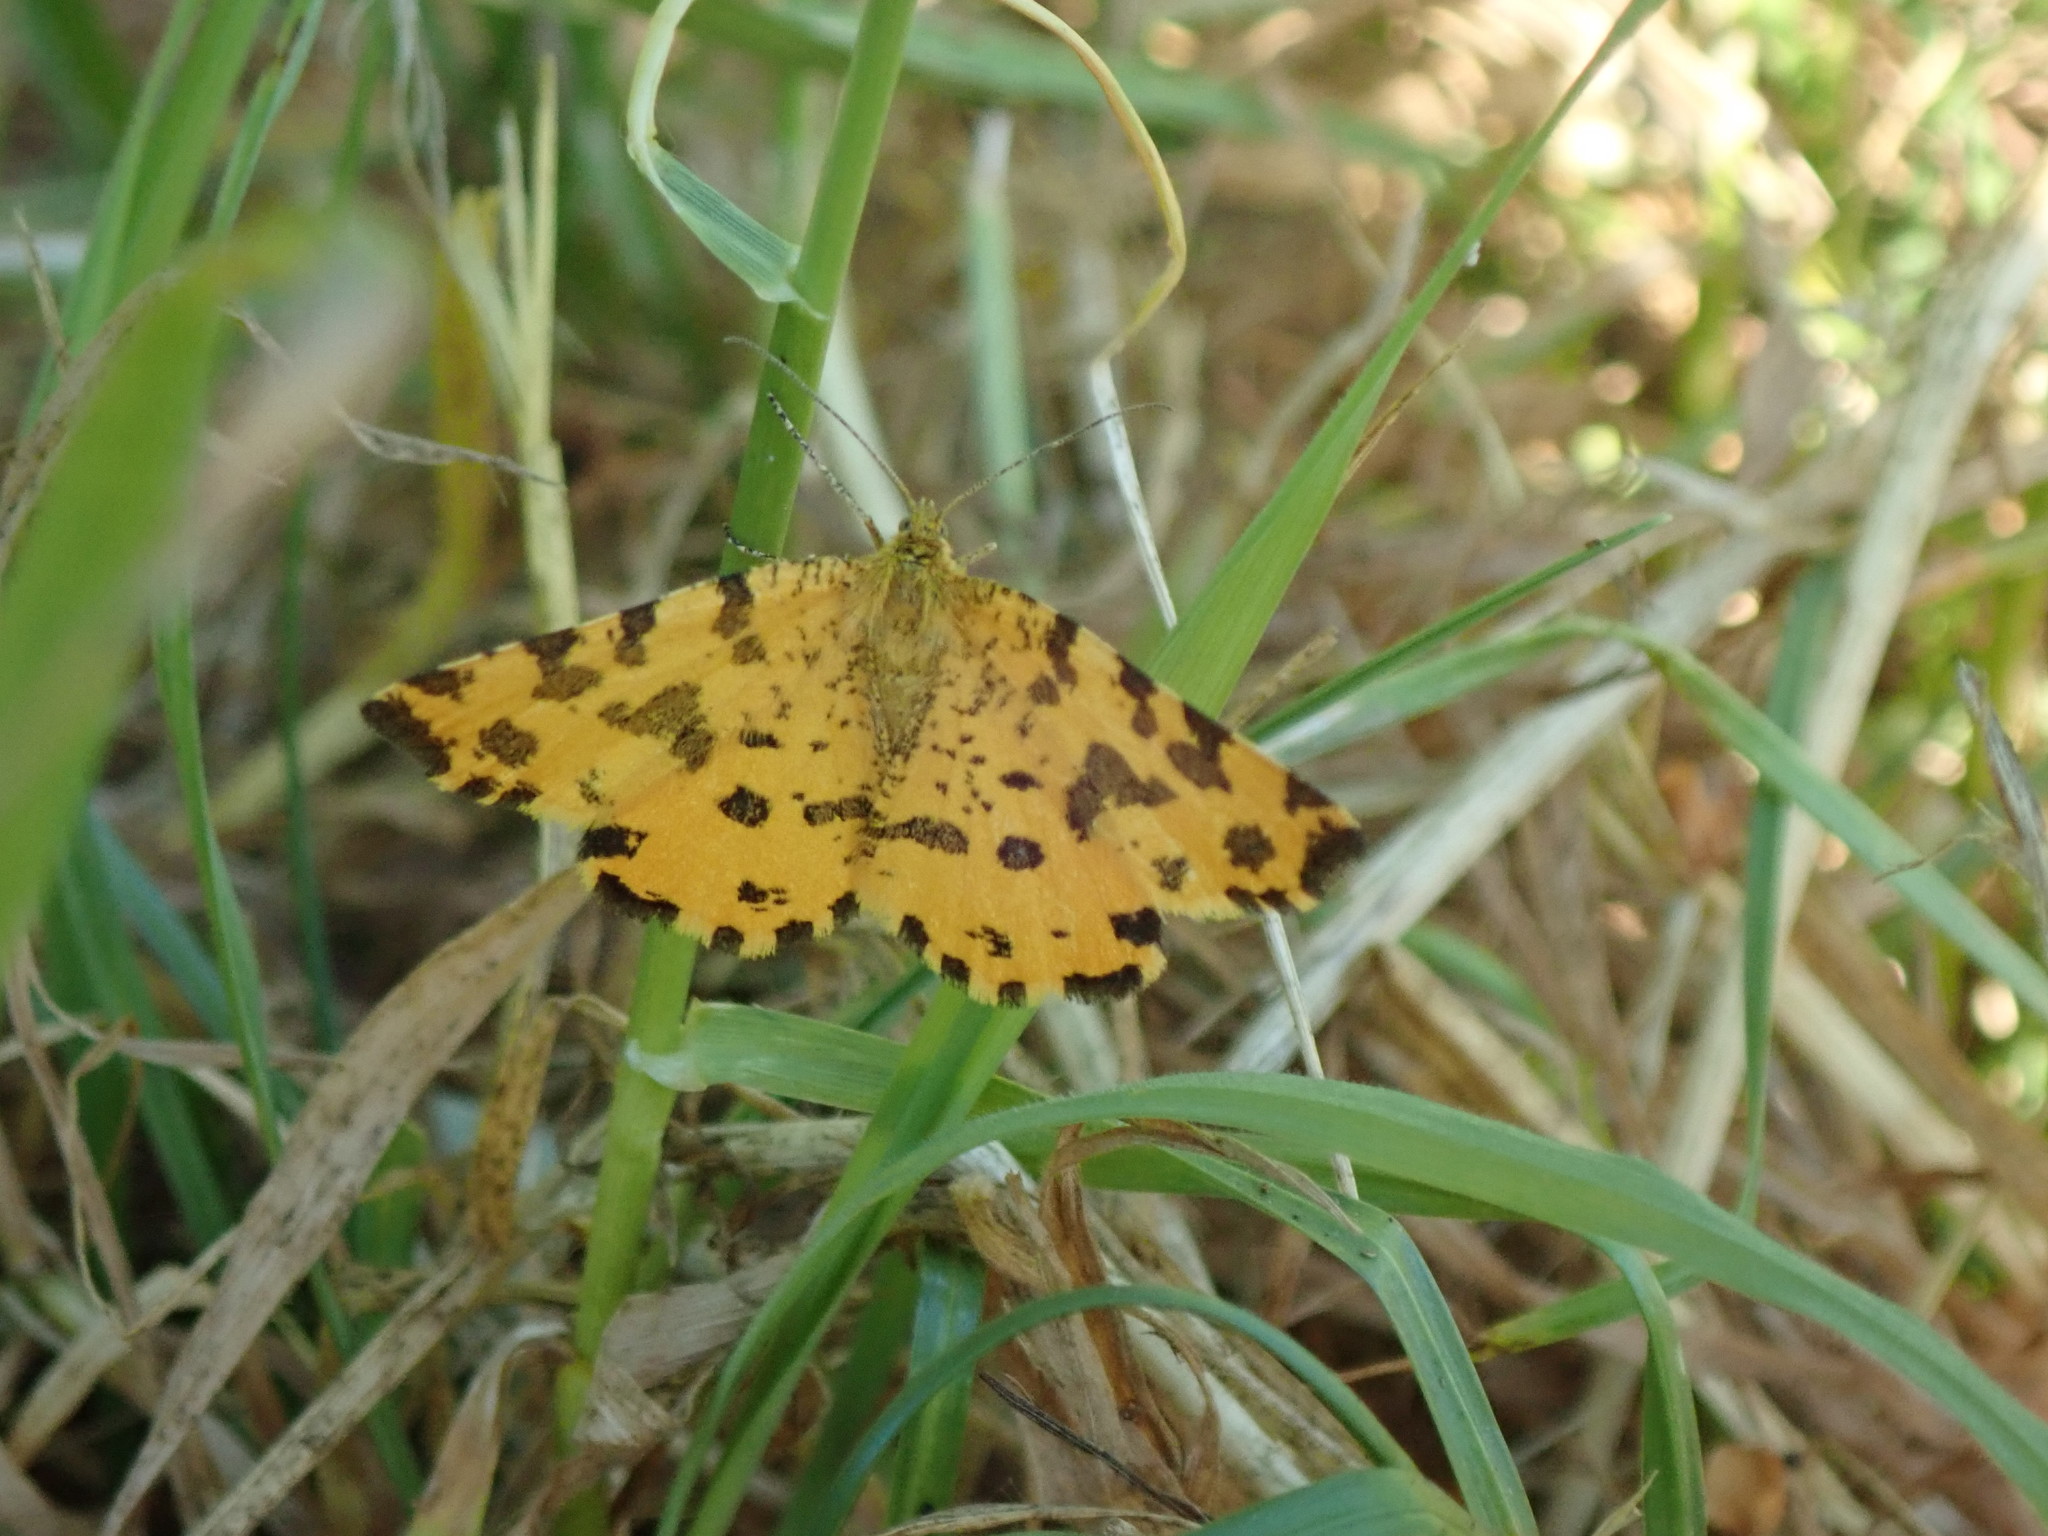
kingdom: Animalia
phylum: Arthropoda
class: Insecta
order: Lepidoptera
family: Geometridae
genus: Pseudopanthera
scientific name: Pseudopanthera macularia
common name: Speckled yellow
